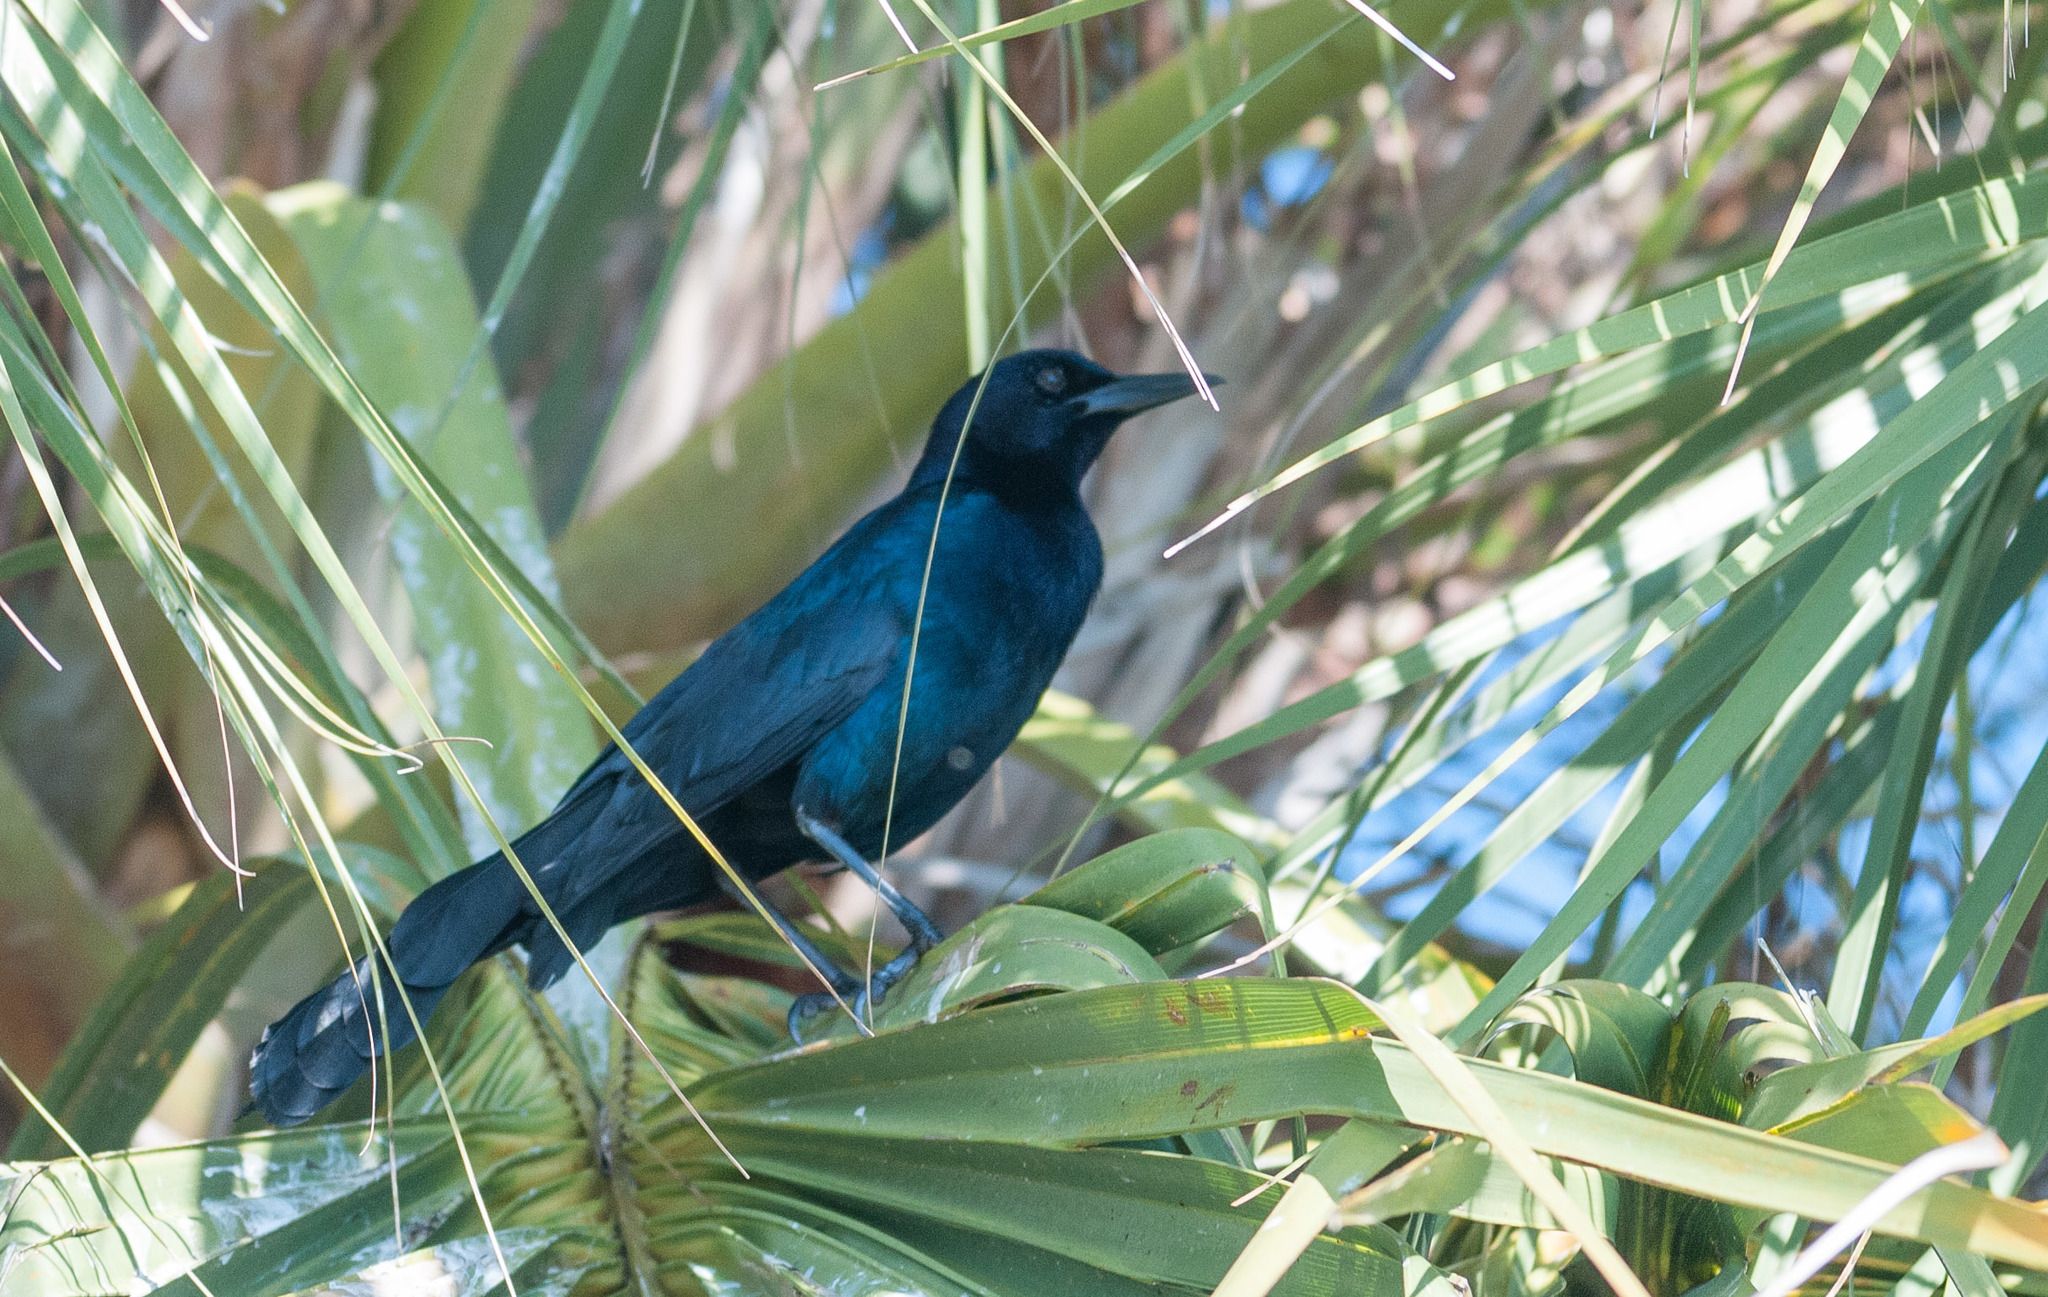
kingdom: Animalia
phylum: Chordata
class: Aves
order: Passeriformes
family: Icteridae
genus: Quiscalus
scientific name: Quiscalus major
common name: Boat-tailed grackle
